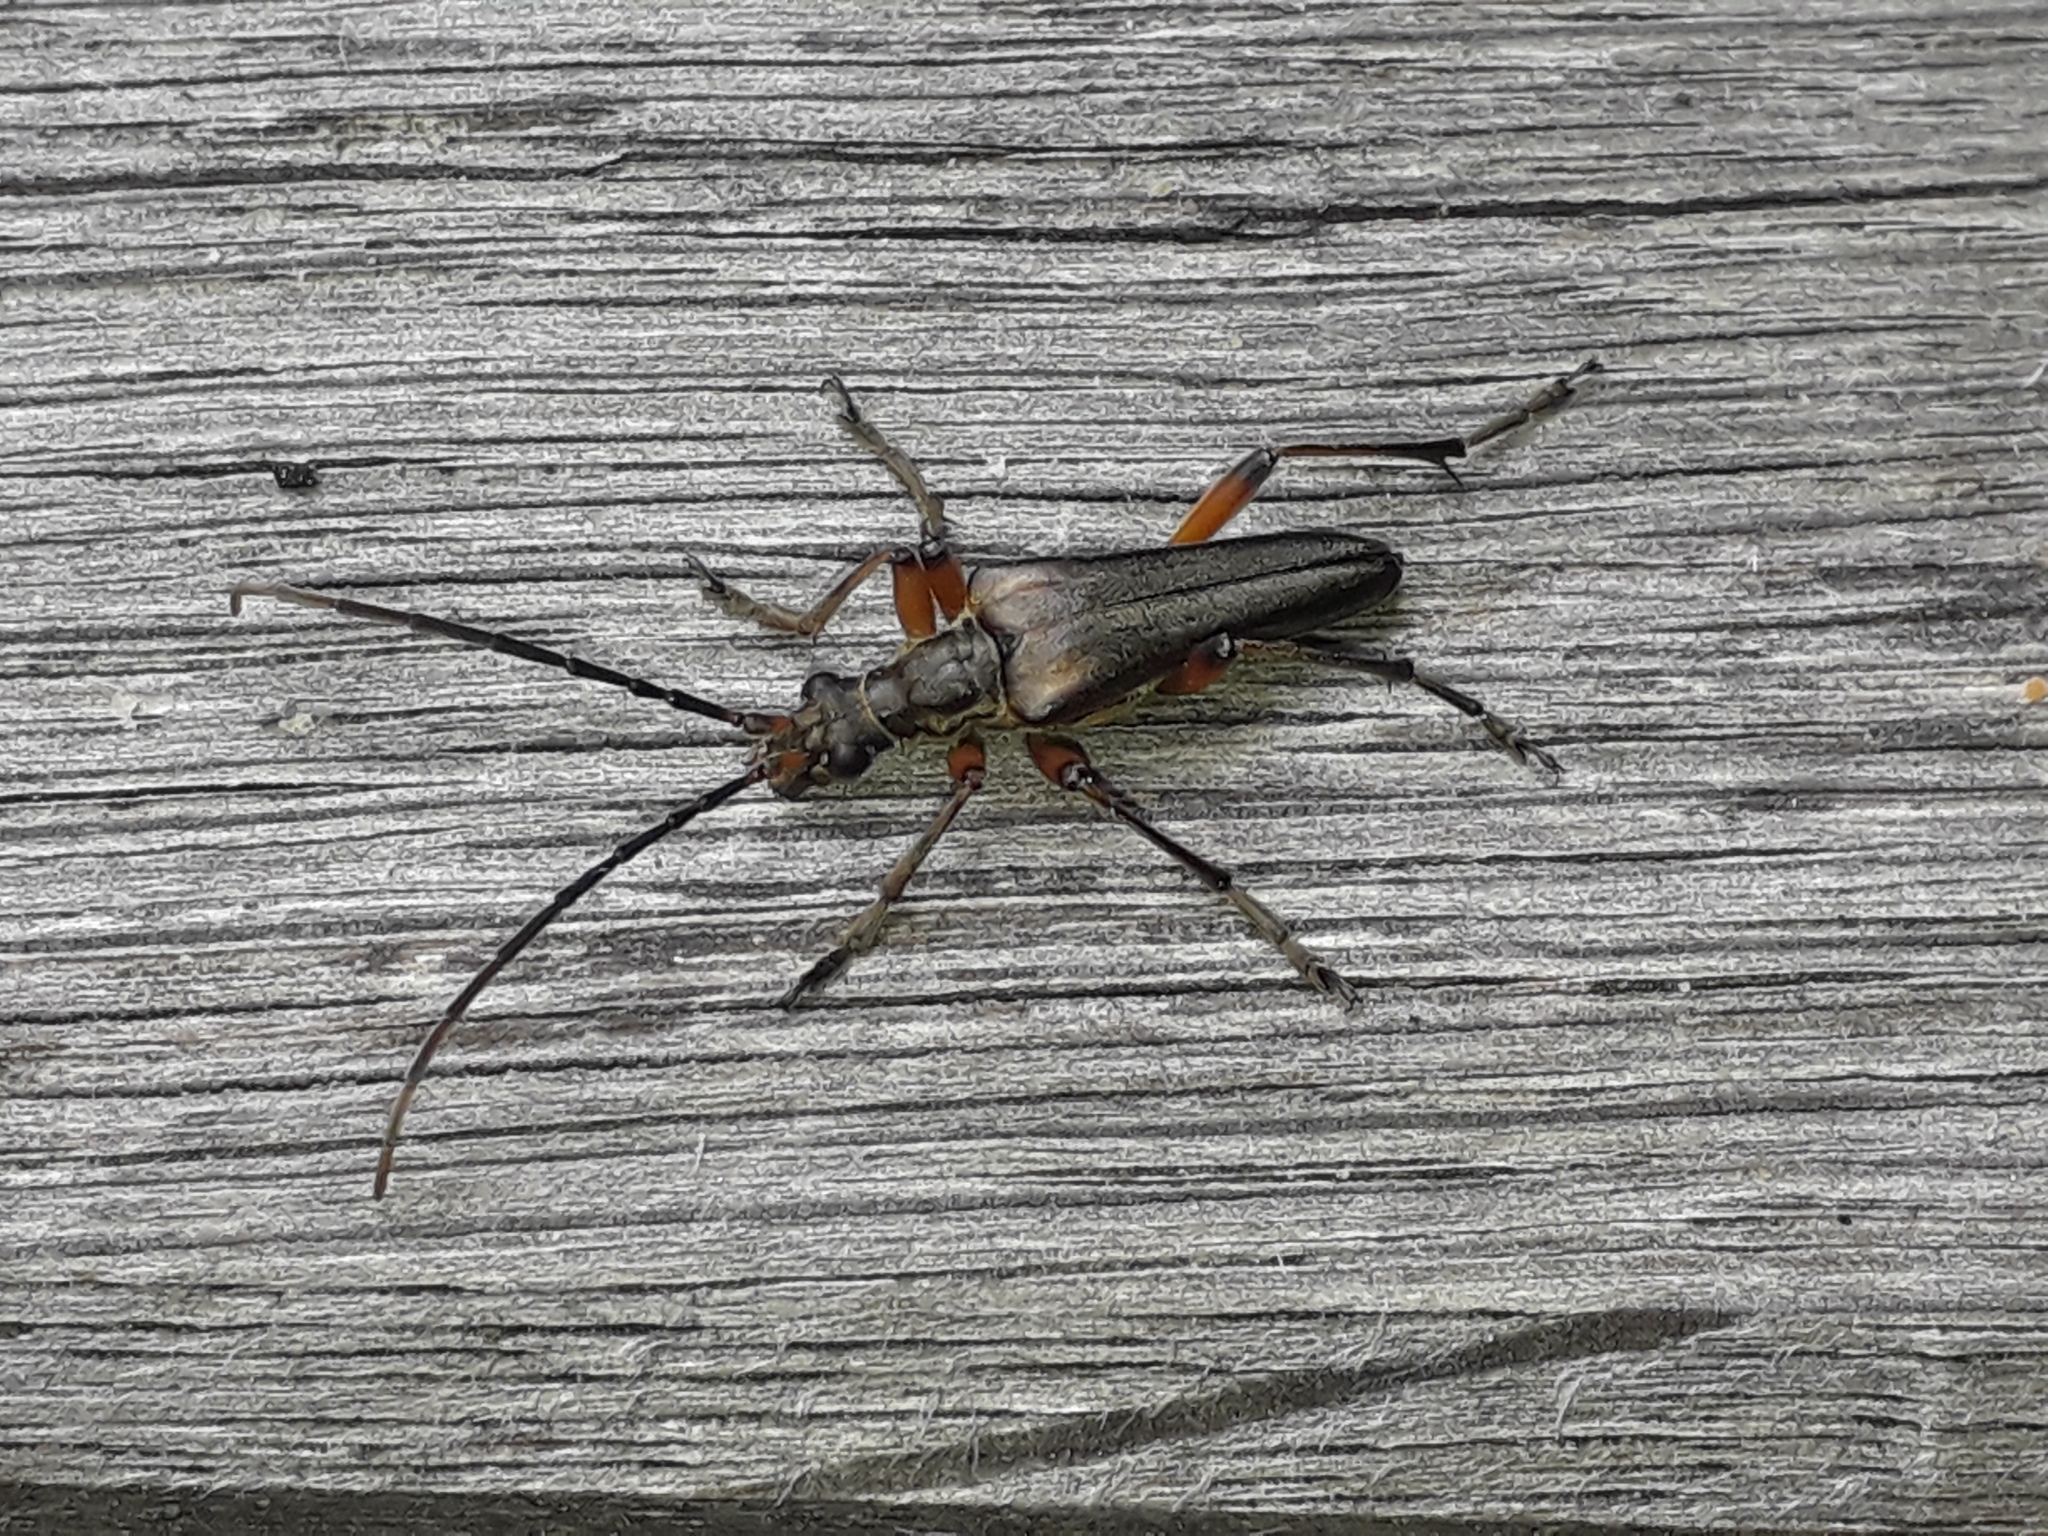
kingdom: Animalia
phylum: Arthropoda
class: Insecta
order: Coleoptera
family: Cerambycidae
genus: Stenocorus
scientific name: Stenocorus meridianus
